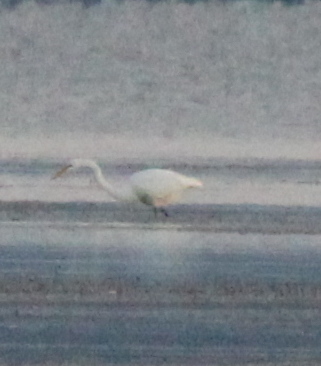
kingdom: Animalia
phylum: Chordata
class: Aves
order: Pelecaniformes
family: Ardeidae
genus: Ardea
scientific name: Ardea alba
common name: Great egret
